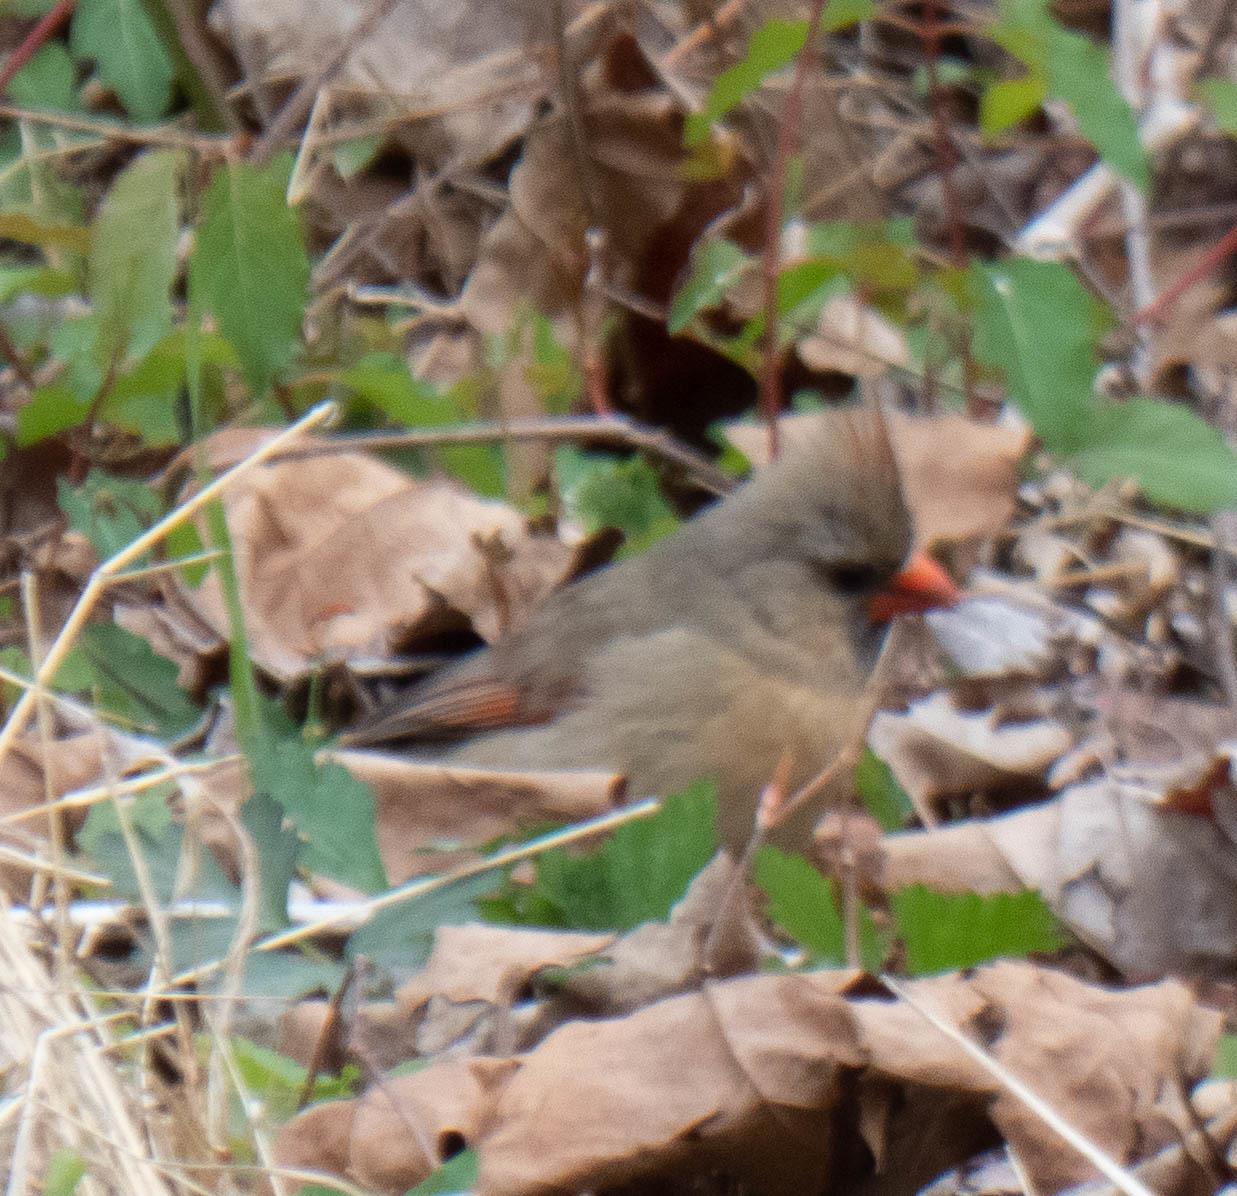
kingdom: Animalia
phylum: Chordata
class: Aves
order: Passeriformes
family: Cardinalidae
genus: Cardinalis
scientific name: Cardinalis cardinalis
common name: Northern cardinal
